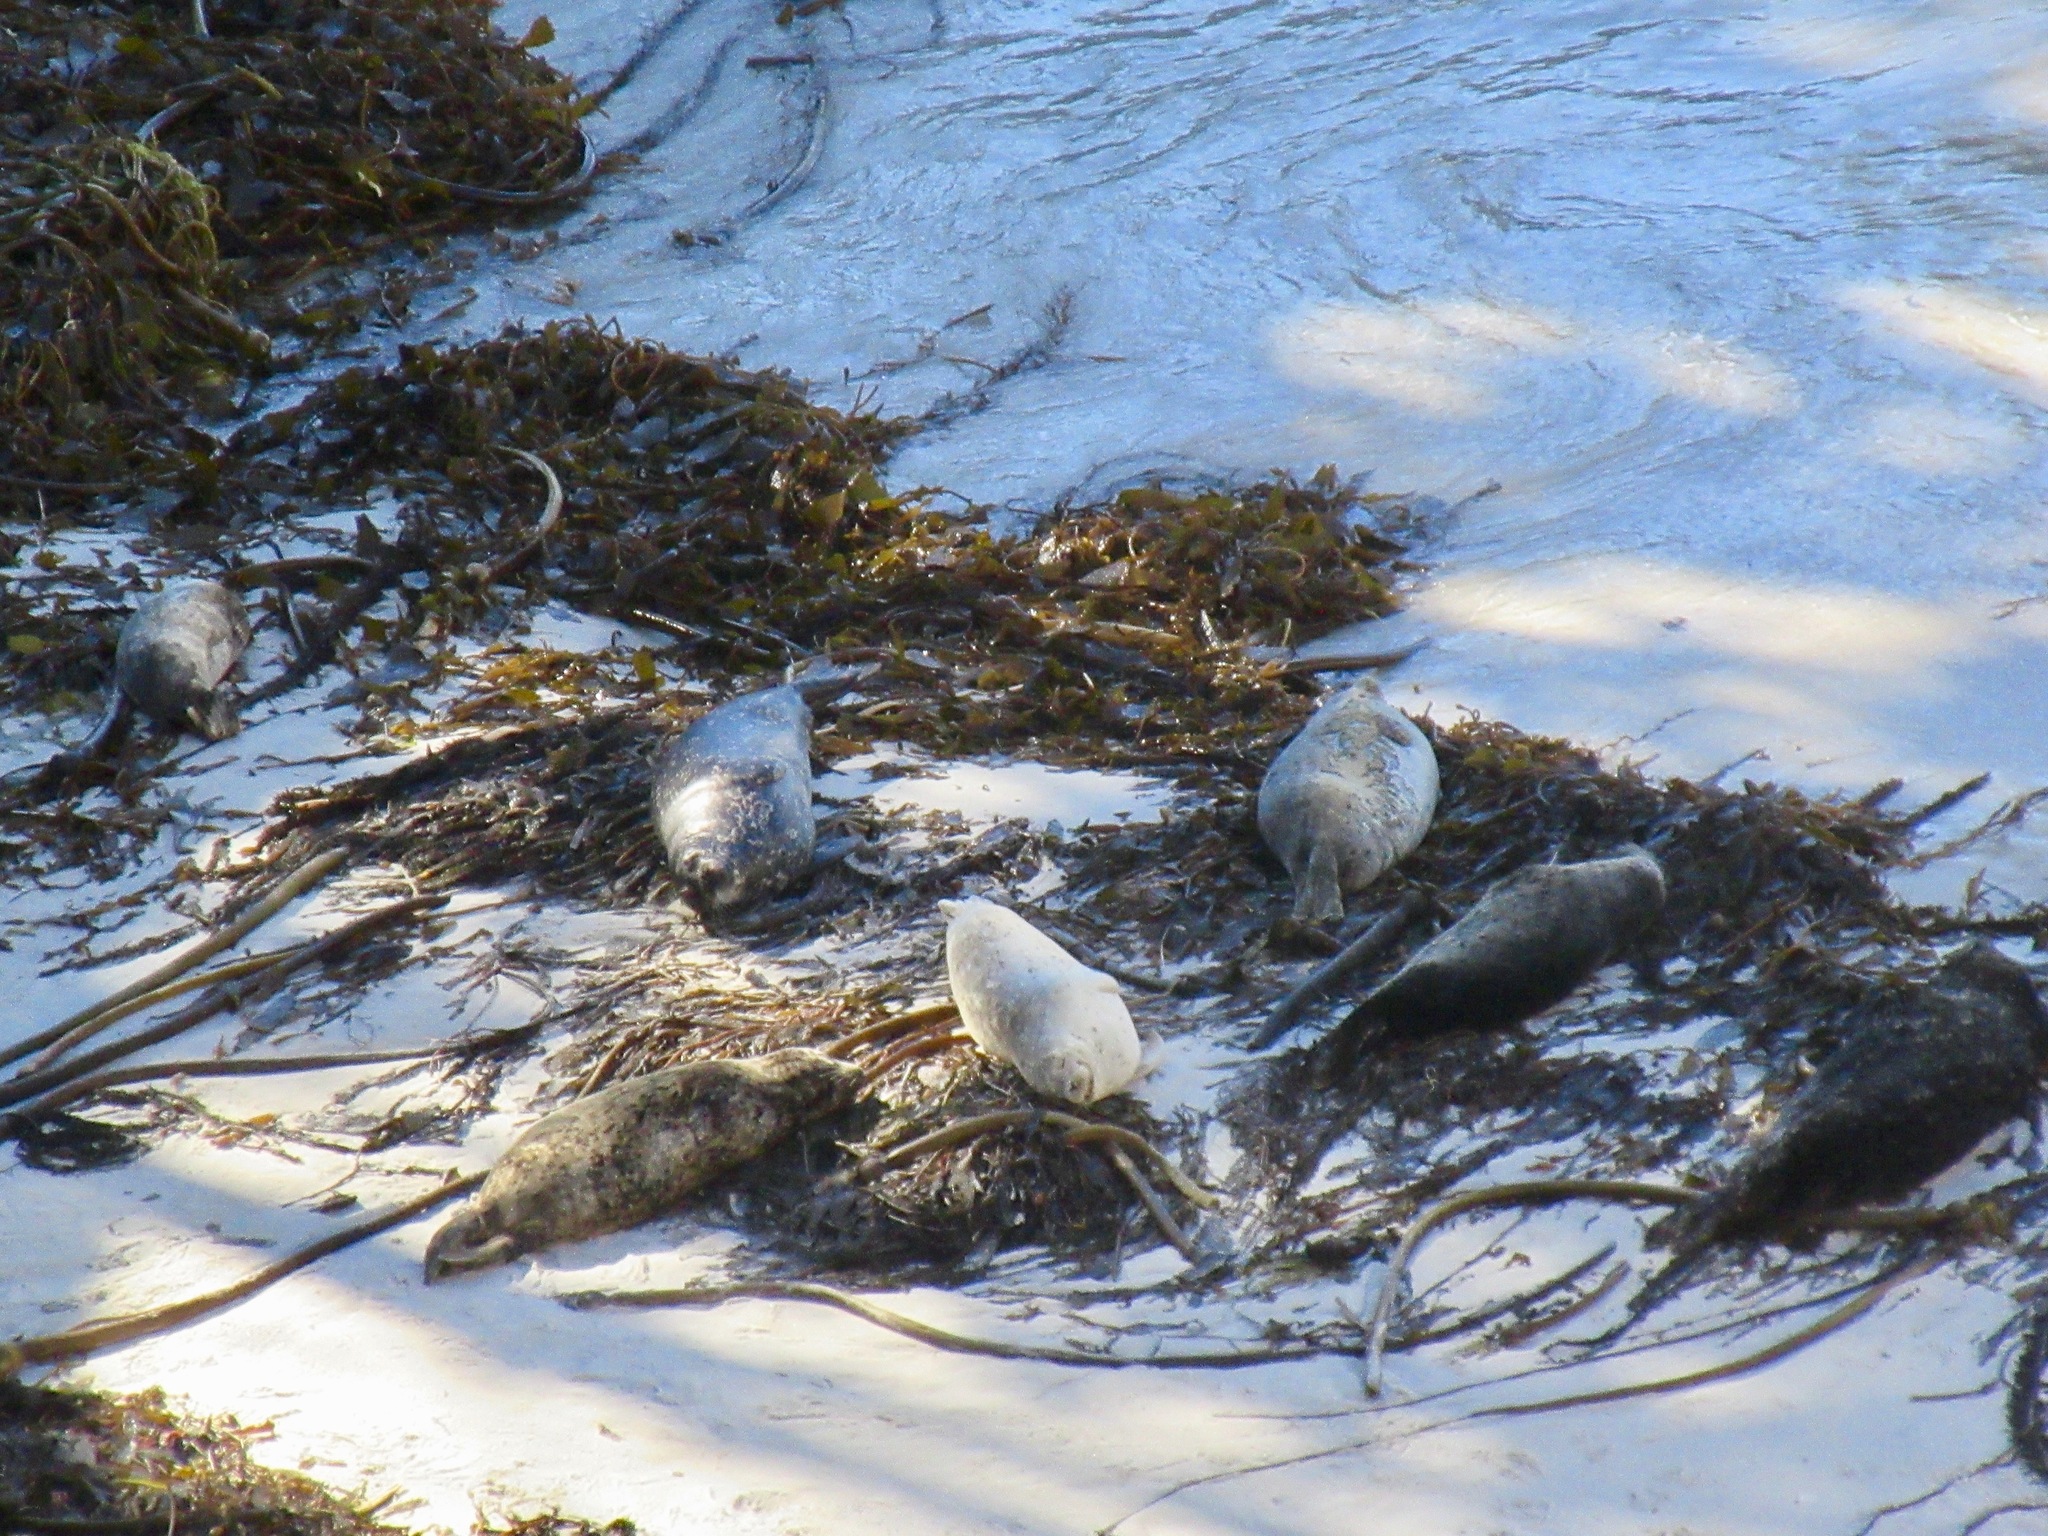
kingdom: Animalia
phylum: Chordata
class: Mammalia
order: Carnivora
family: Phocidae
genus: Phoca
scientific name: Phoca vitulina
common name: Harbor seal
